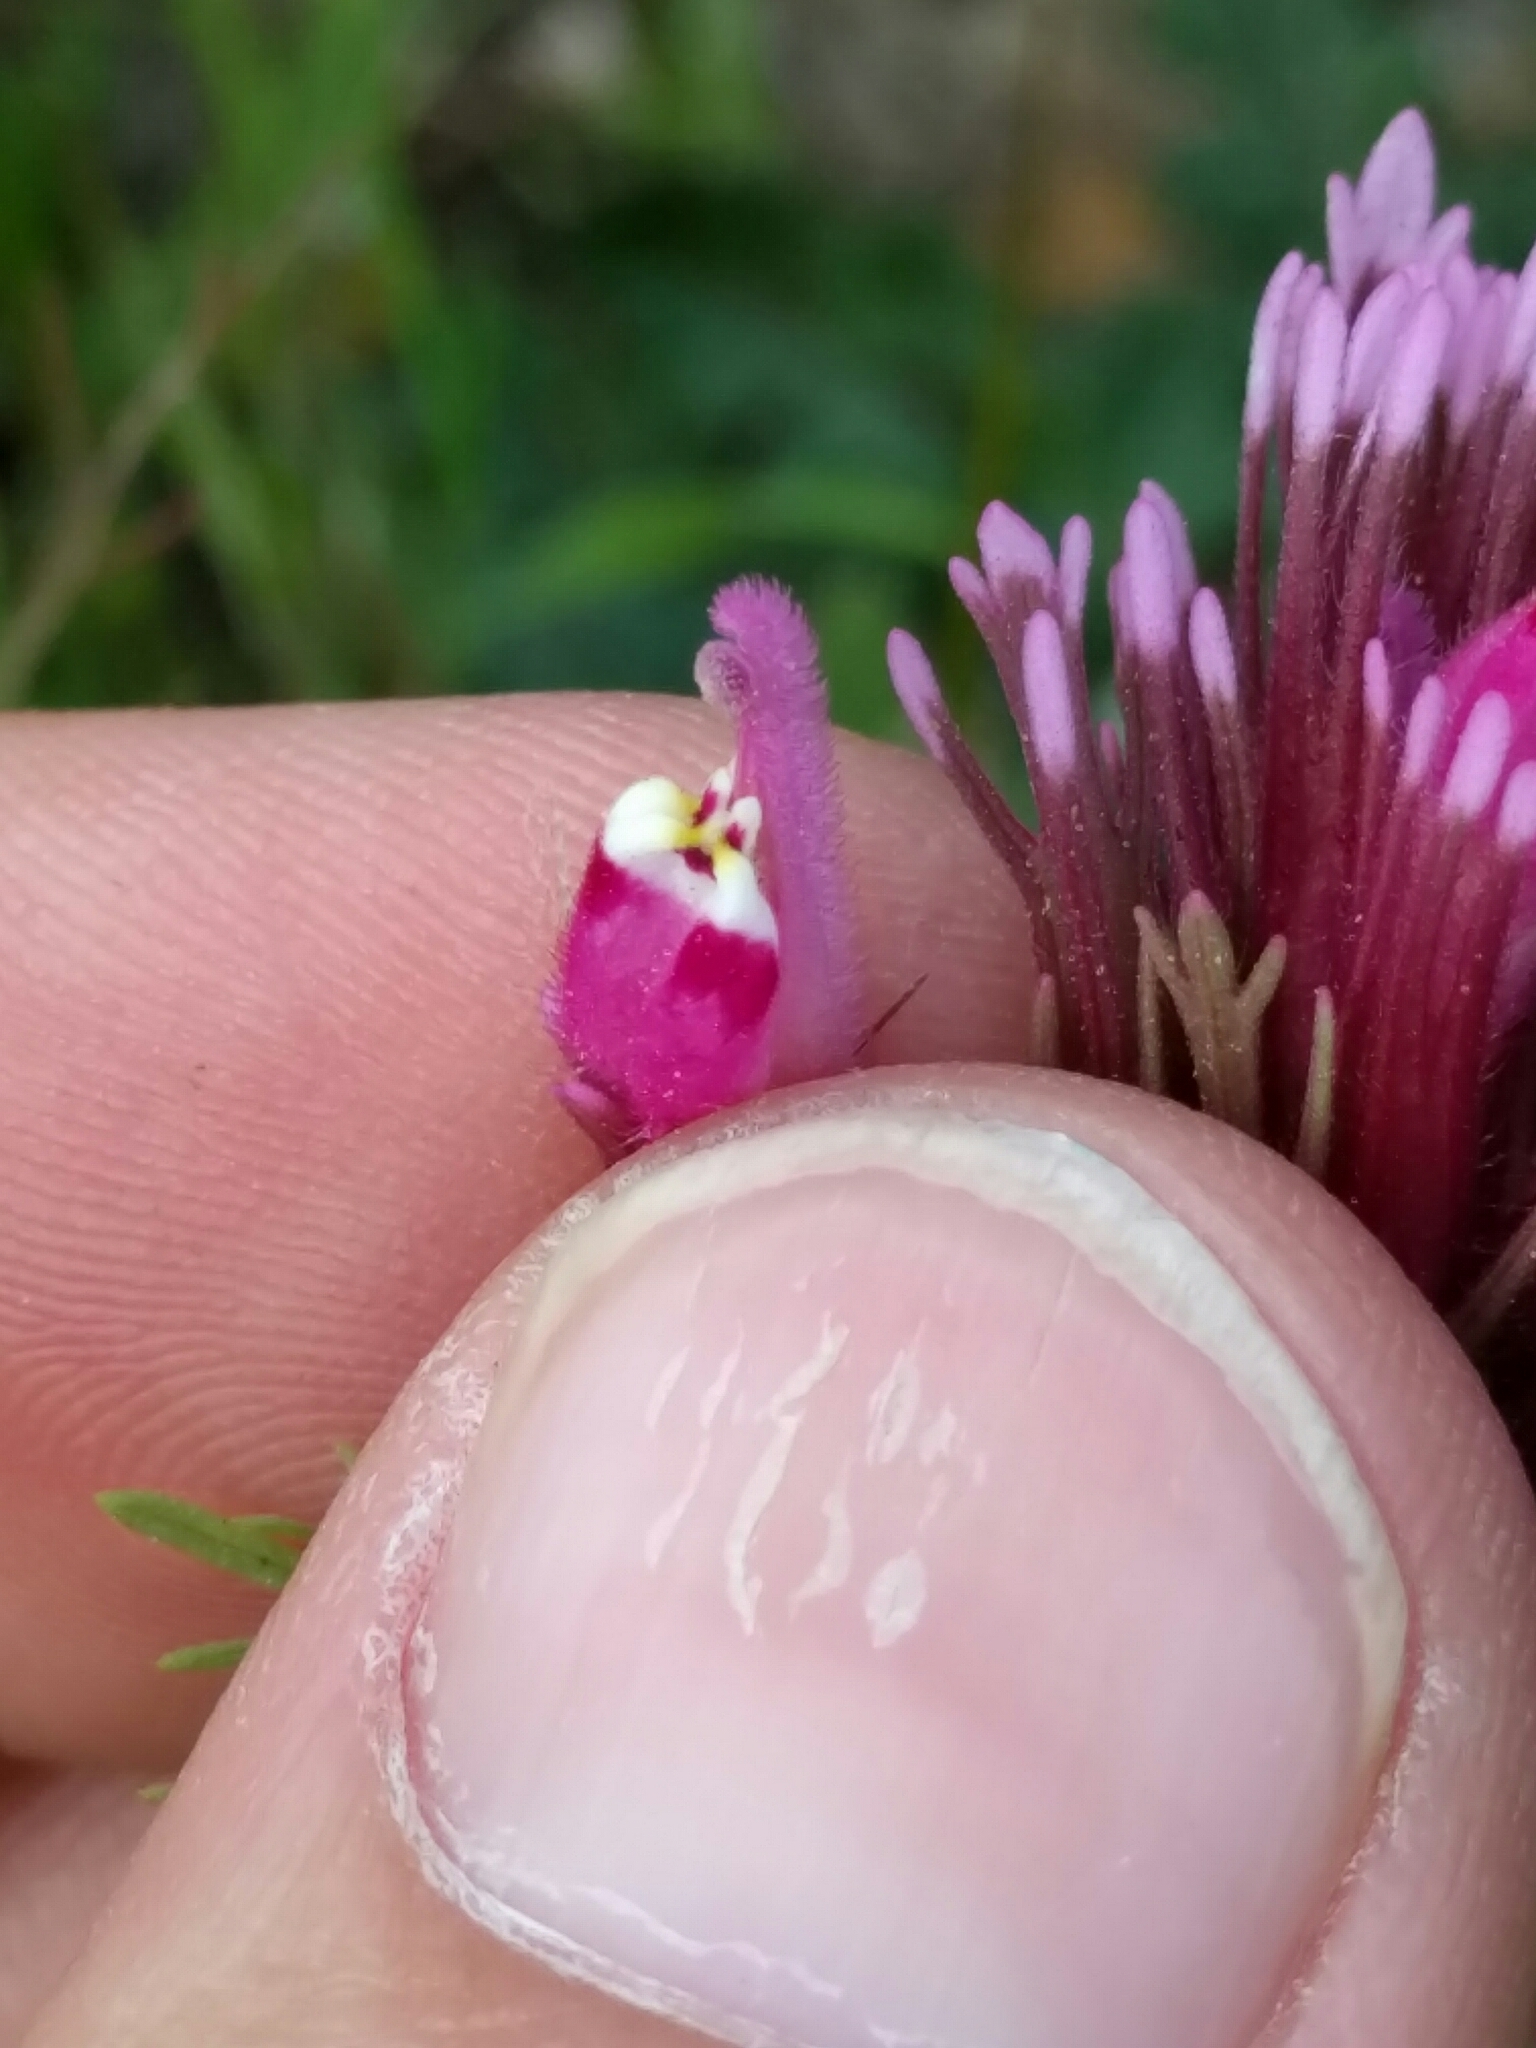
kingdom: Plantae
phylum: Tracheophyta
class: Magnoliopsida
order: Lamiales
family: Orobanchaceae
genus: Castilleja
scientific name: Castilleja exserta
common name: Purple owl-clover
